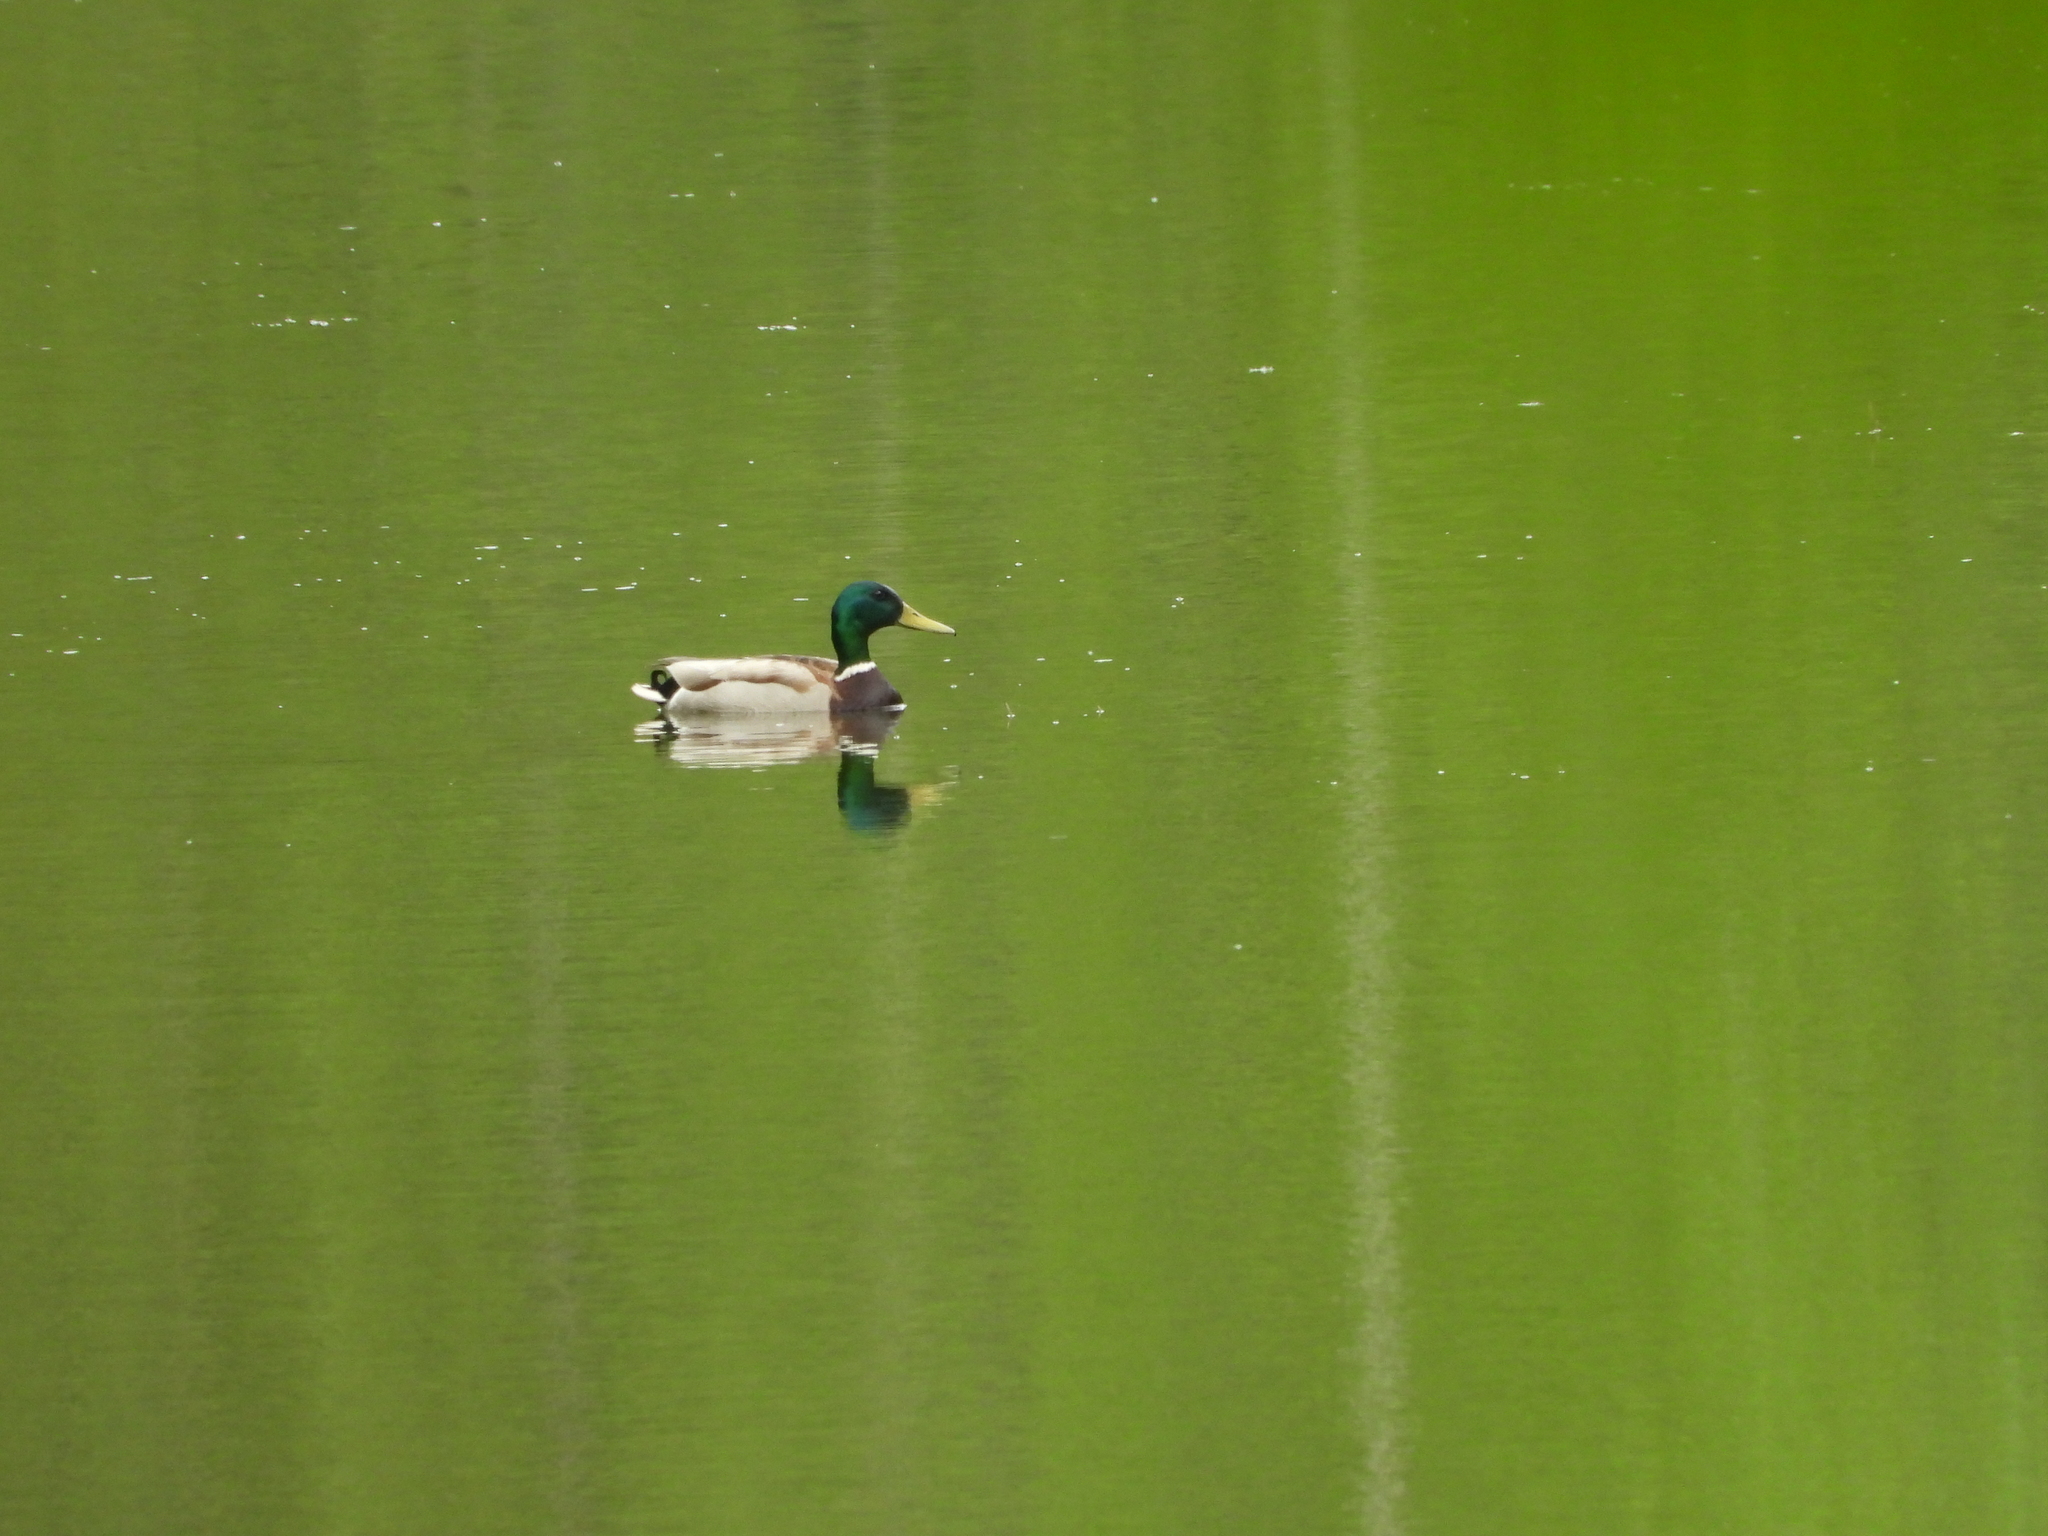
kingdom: Animalia
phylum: Chordata
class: Aves
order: Anseriformes
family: Anatidae
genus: Anas
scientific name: Anas platyrhynchos
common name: Mallard
